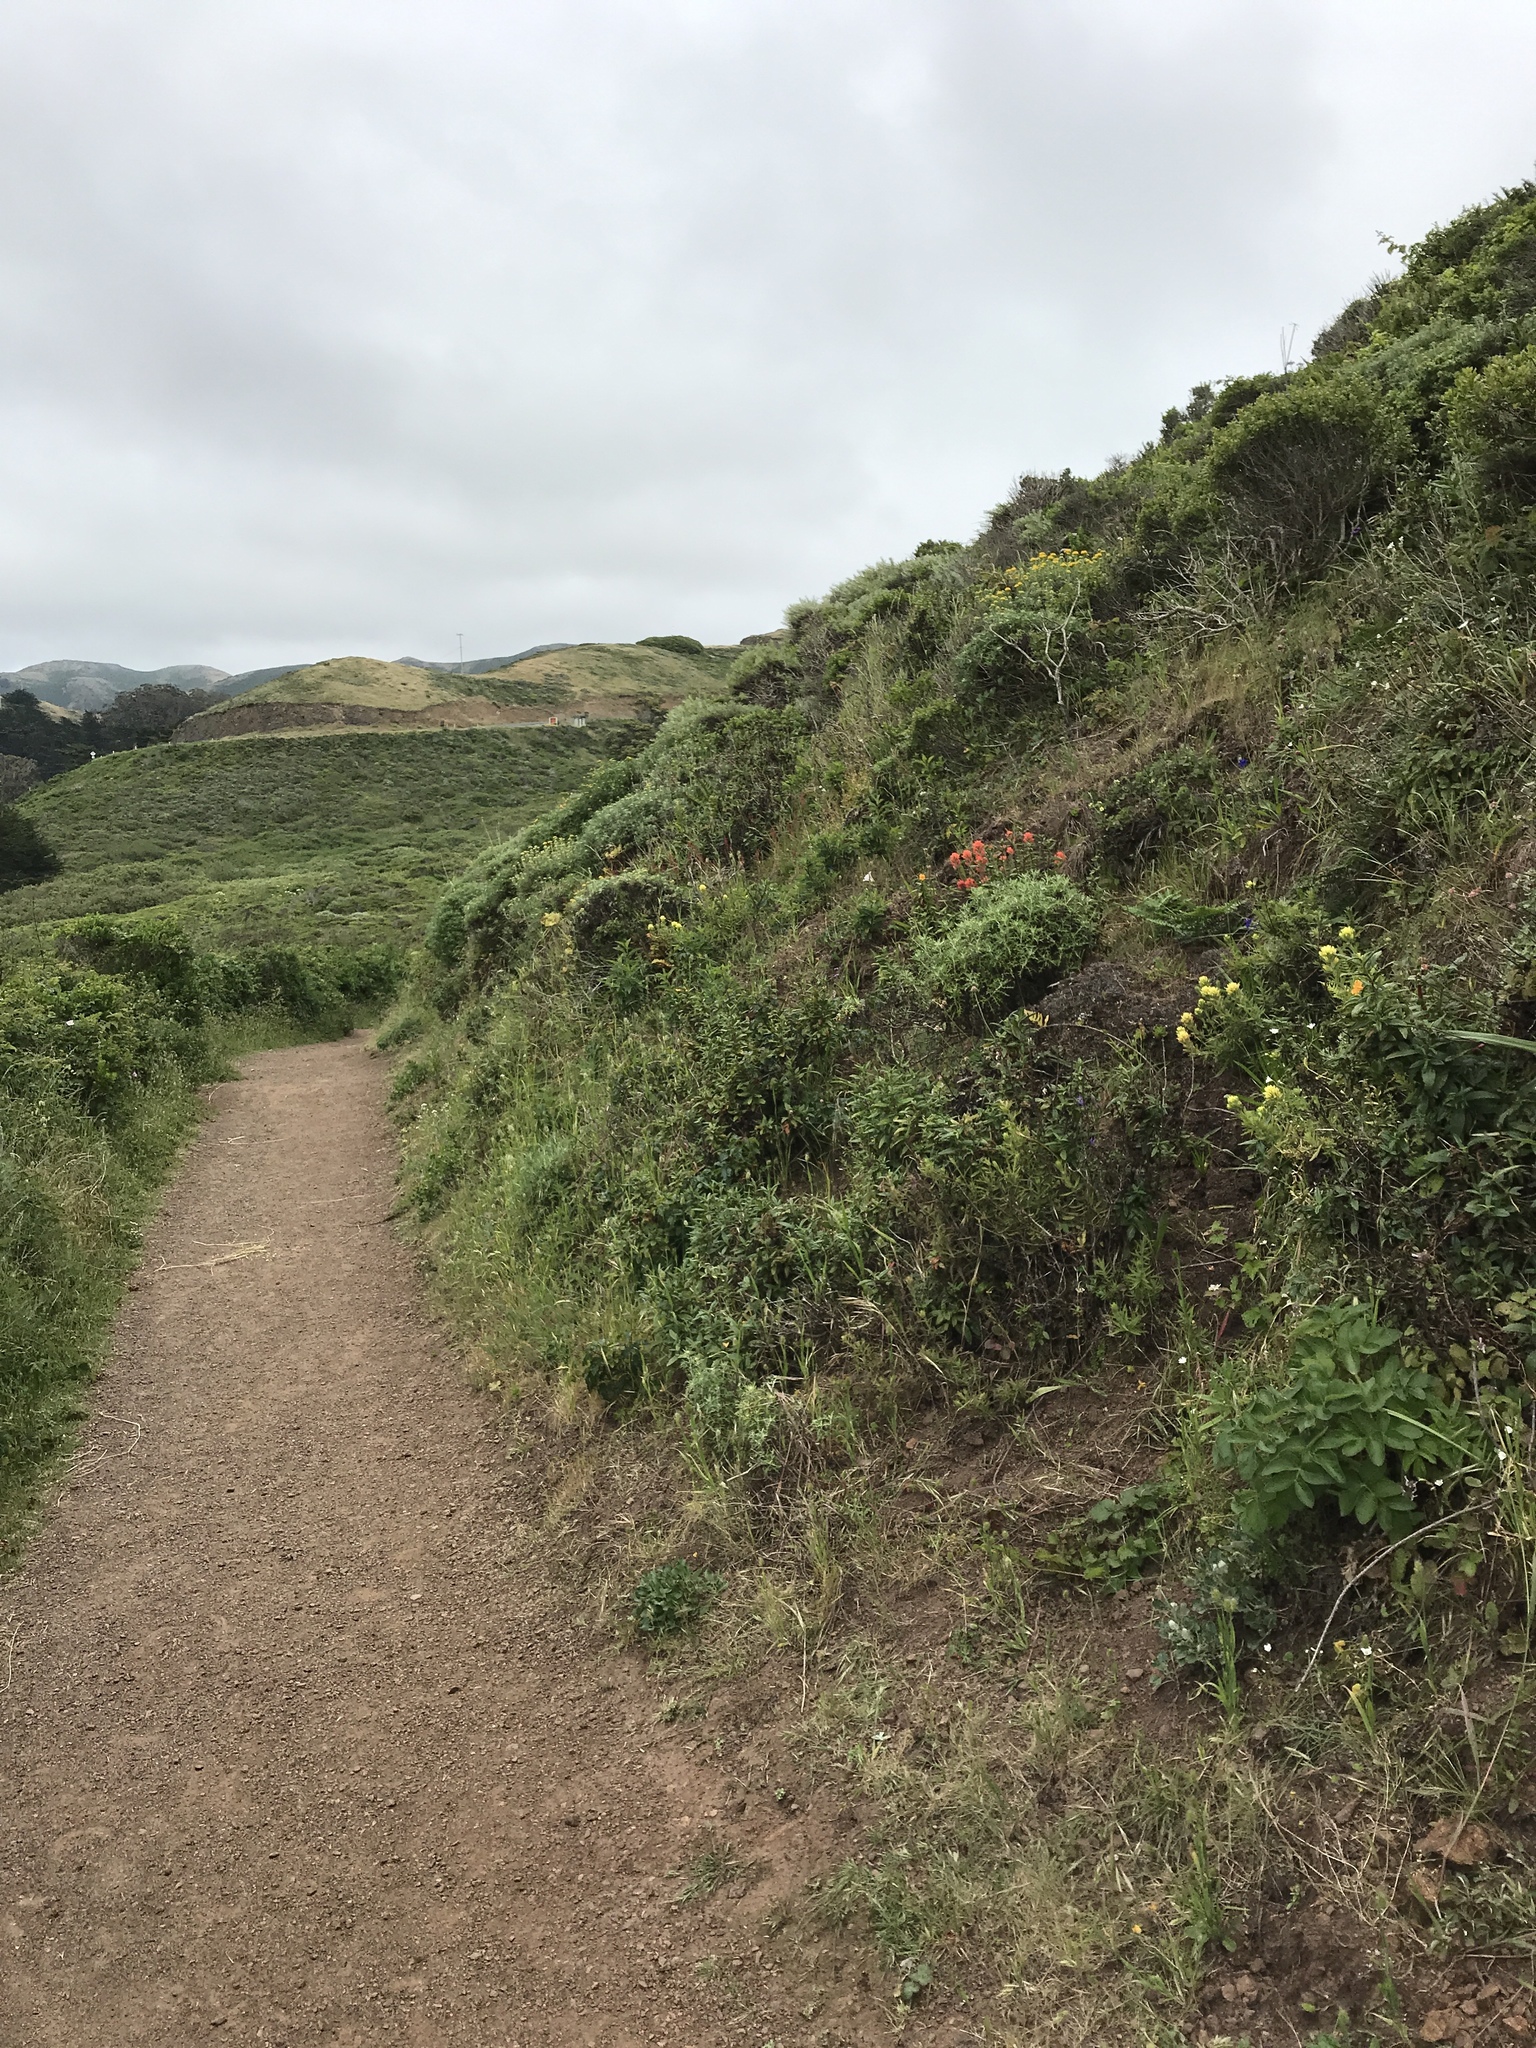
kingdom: Plantae
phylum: Tracheophyta
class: Magnoliopsida
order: Lamiales
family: Orobanchaceae
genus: Castilleja
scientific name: Castilleja wightii
